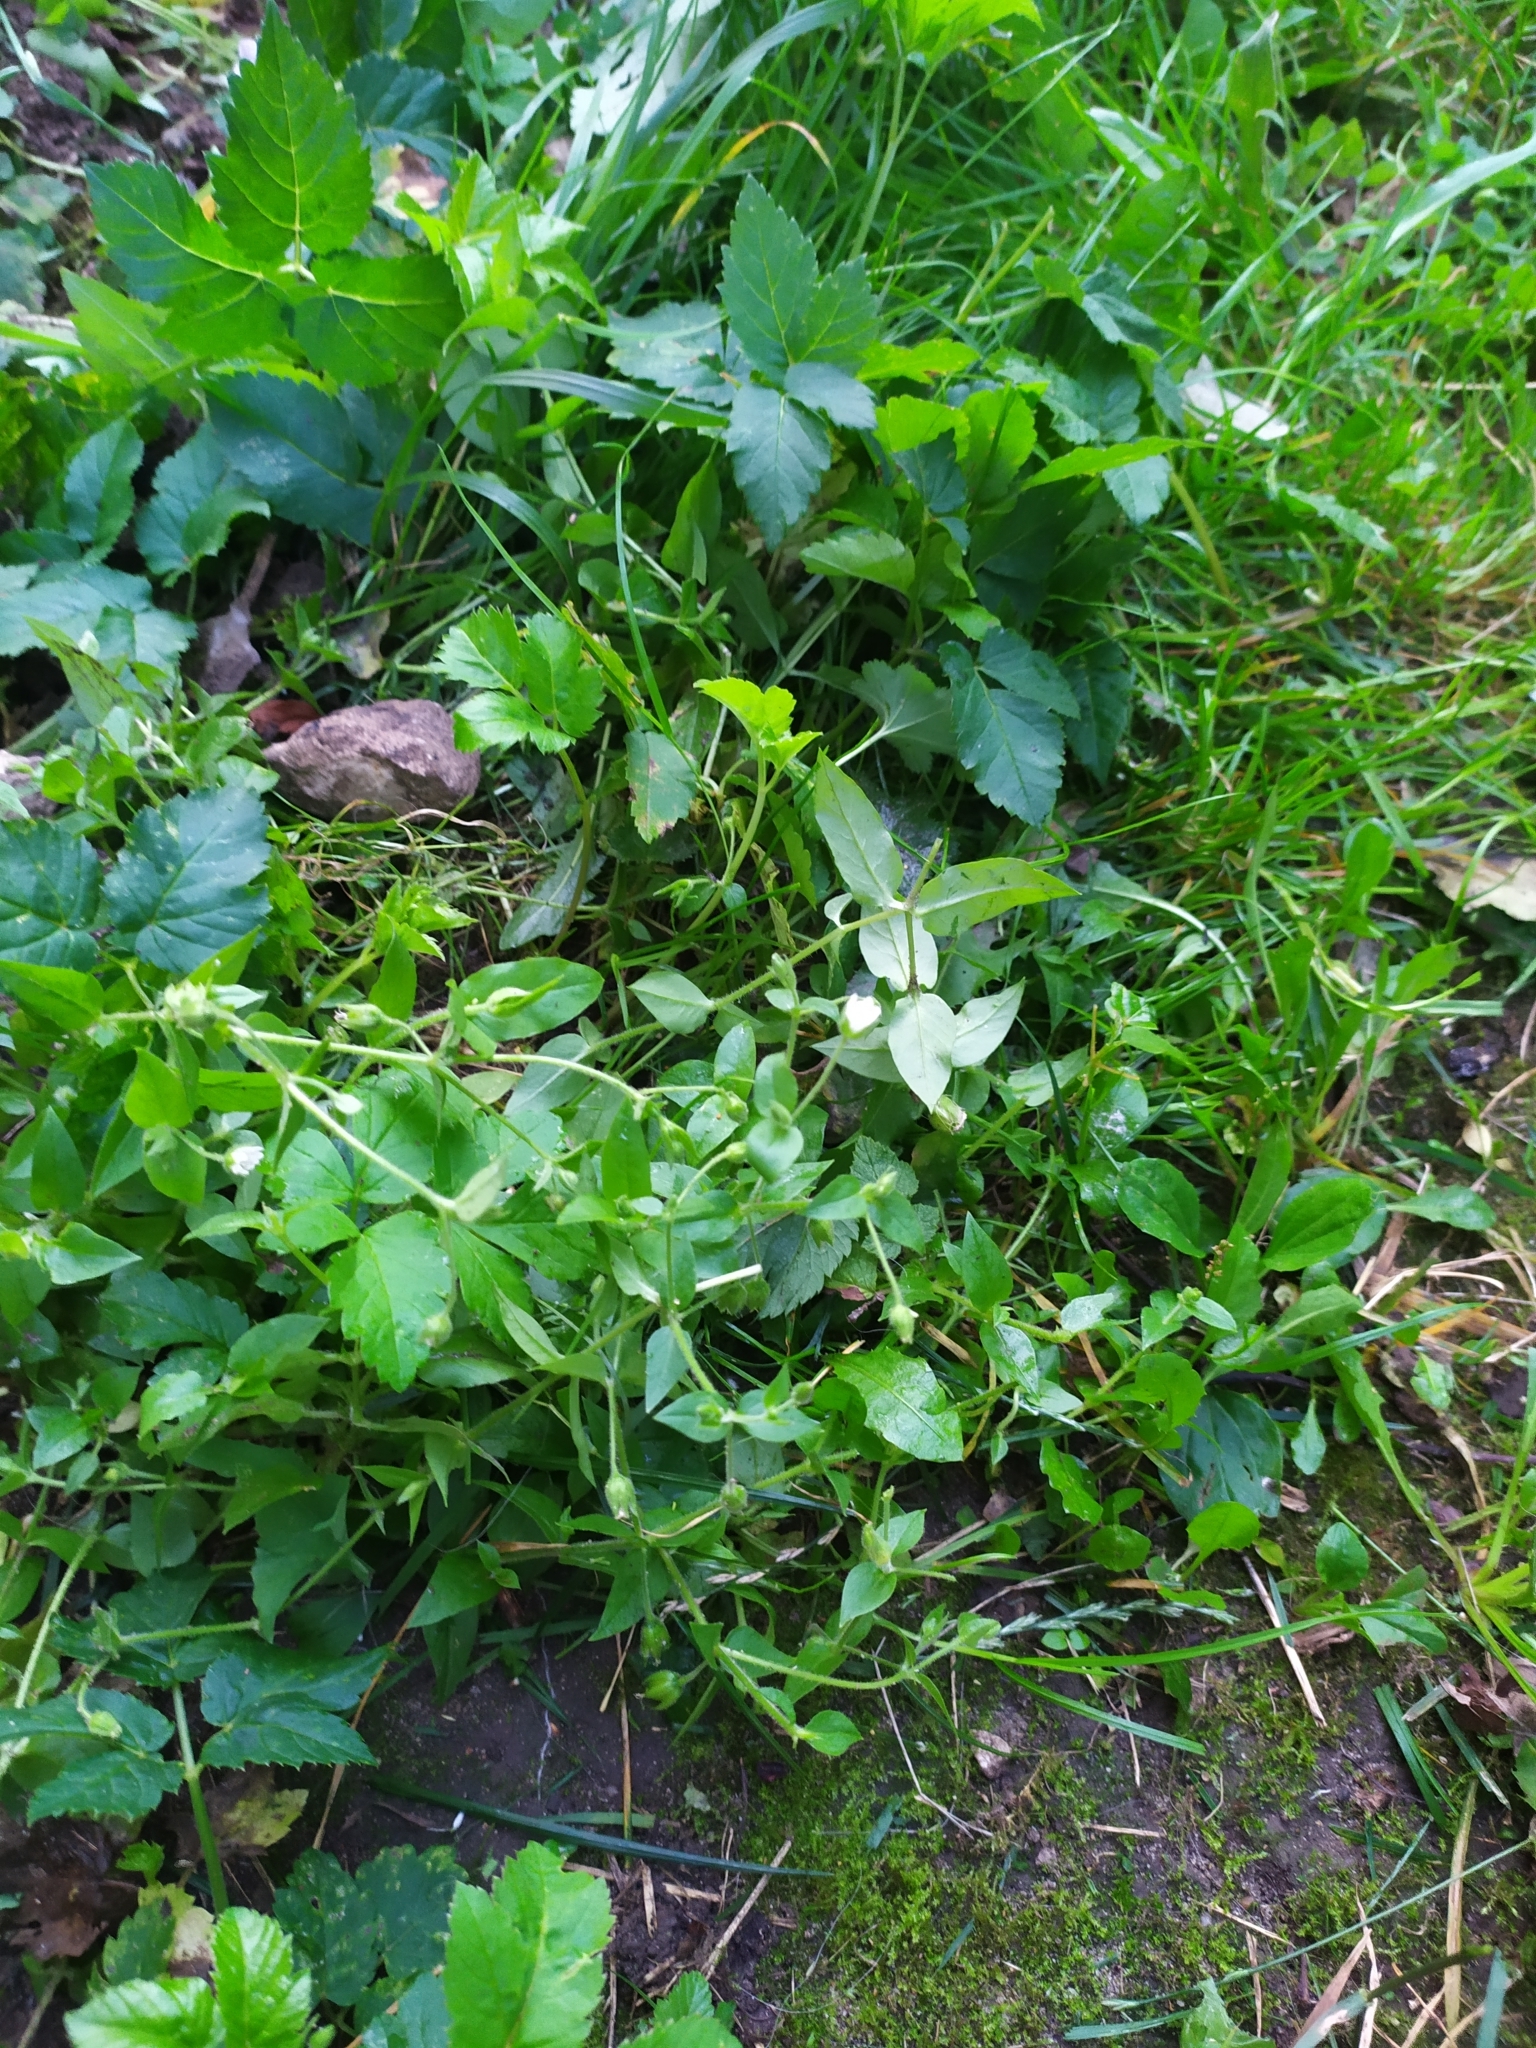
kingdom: Plantae
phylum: Tracheophyta
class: Magnoliopsida
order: Caryophyllales
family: Caryophyllaceae
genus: Stellaria
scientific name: Stellaria media
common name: Common chickweed
